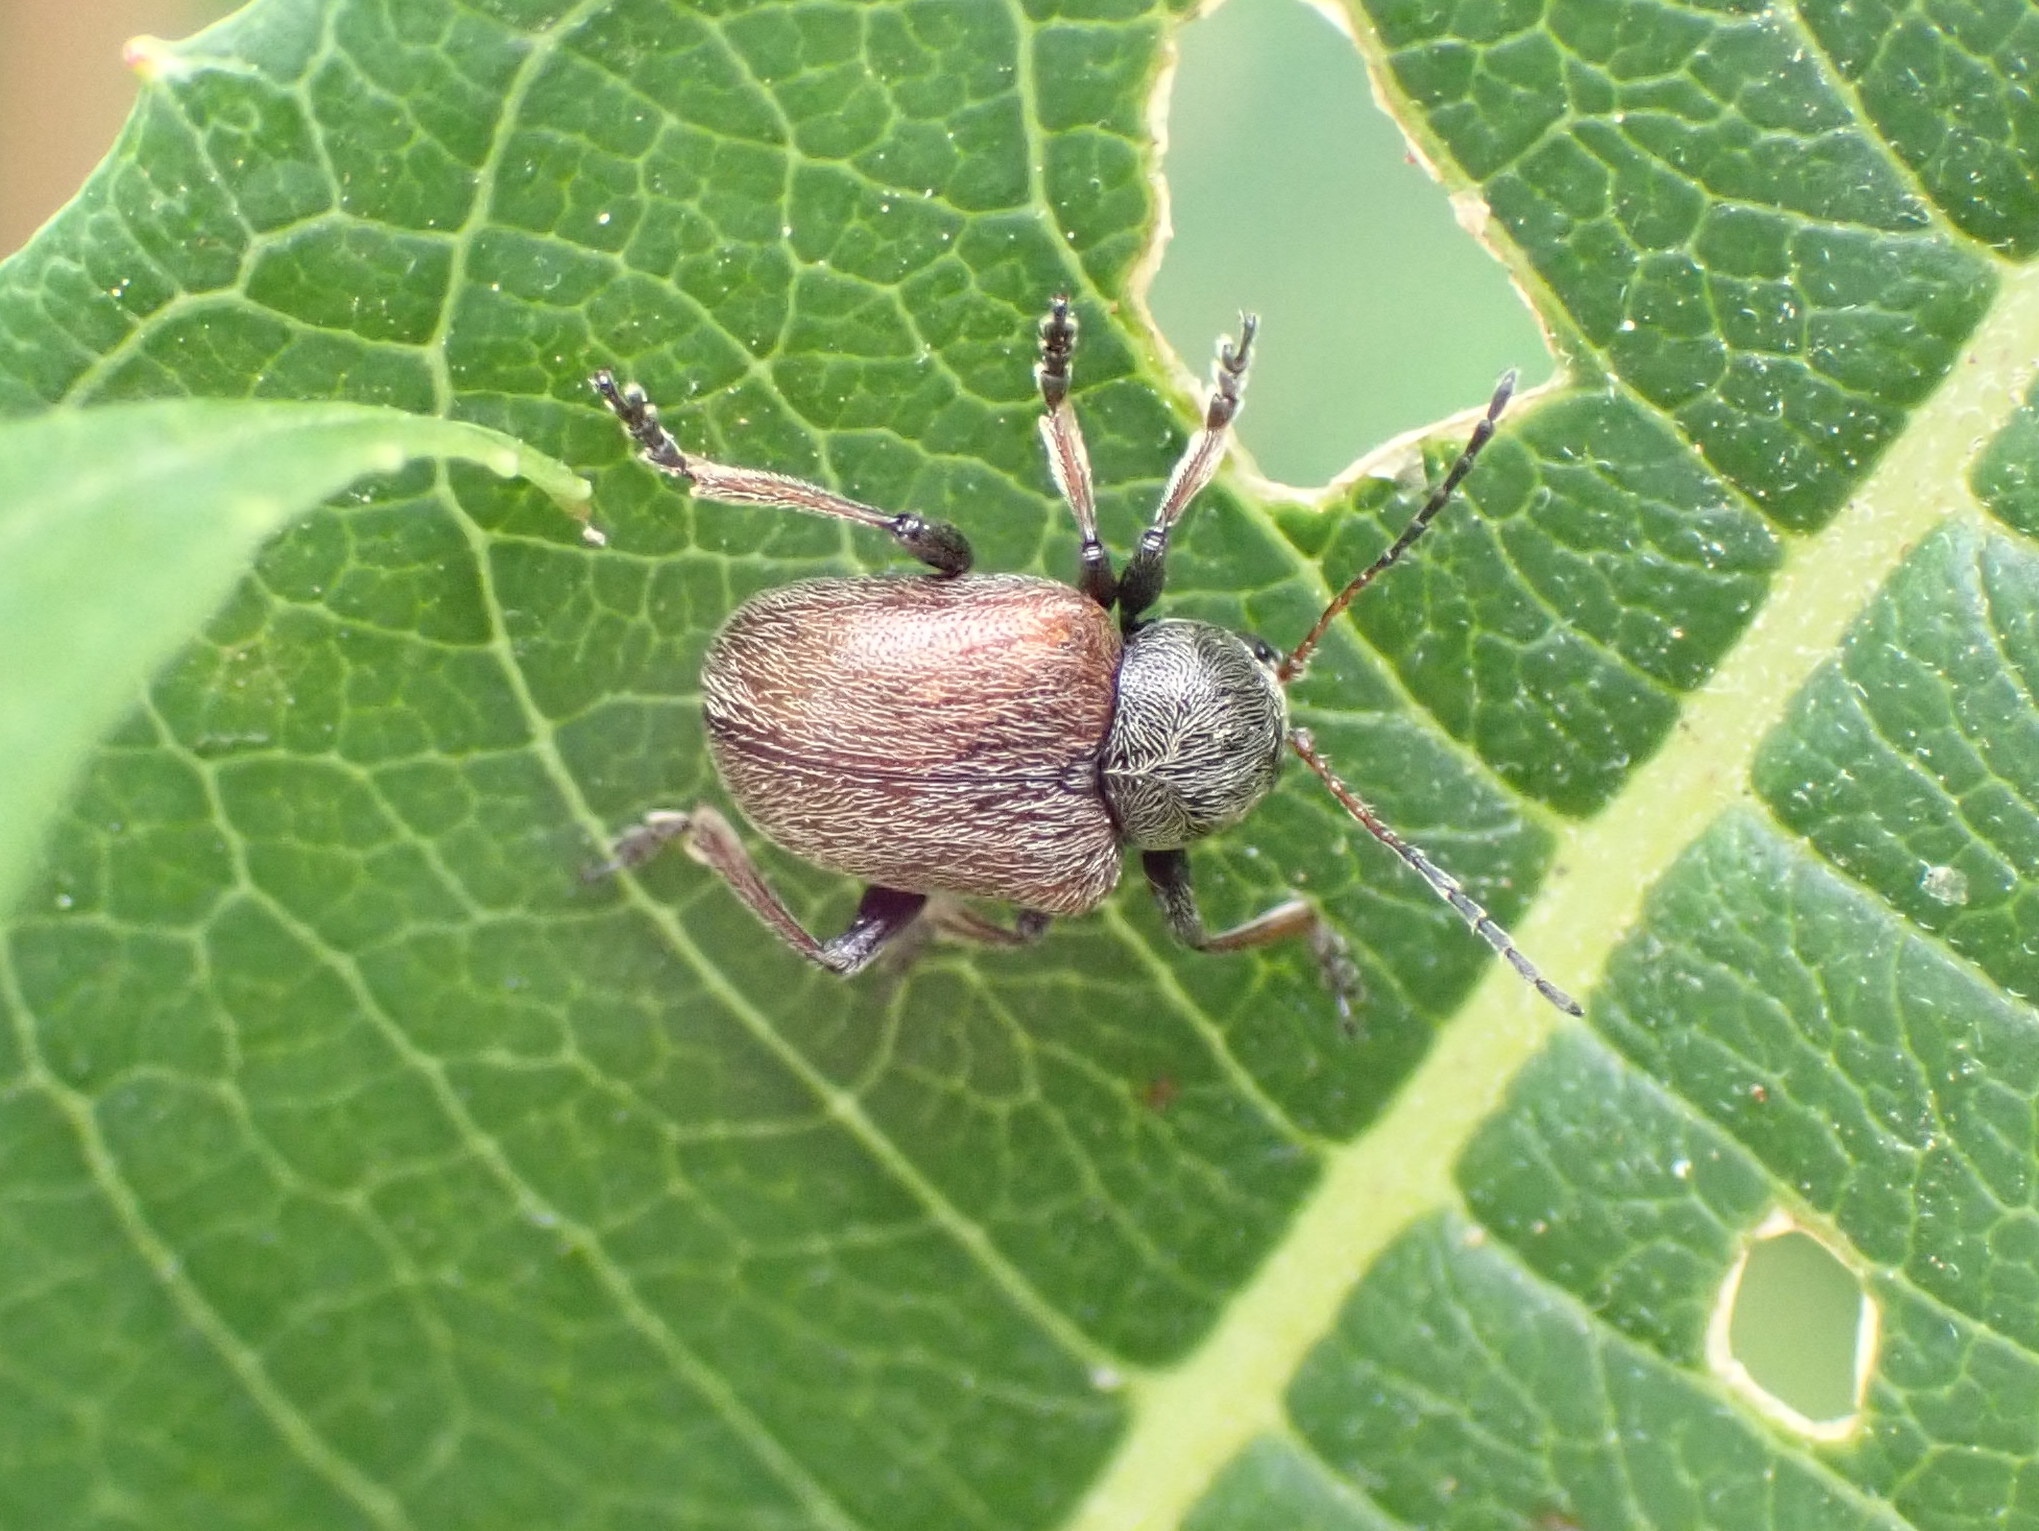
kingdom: Animalia
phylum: Arthropoda
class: Insecta
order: Coleoptera
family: Chrysomelidae
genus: Bromius
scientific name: Bromius obscurus
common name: Western grape rootworm
